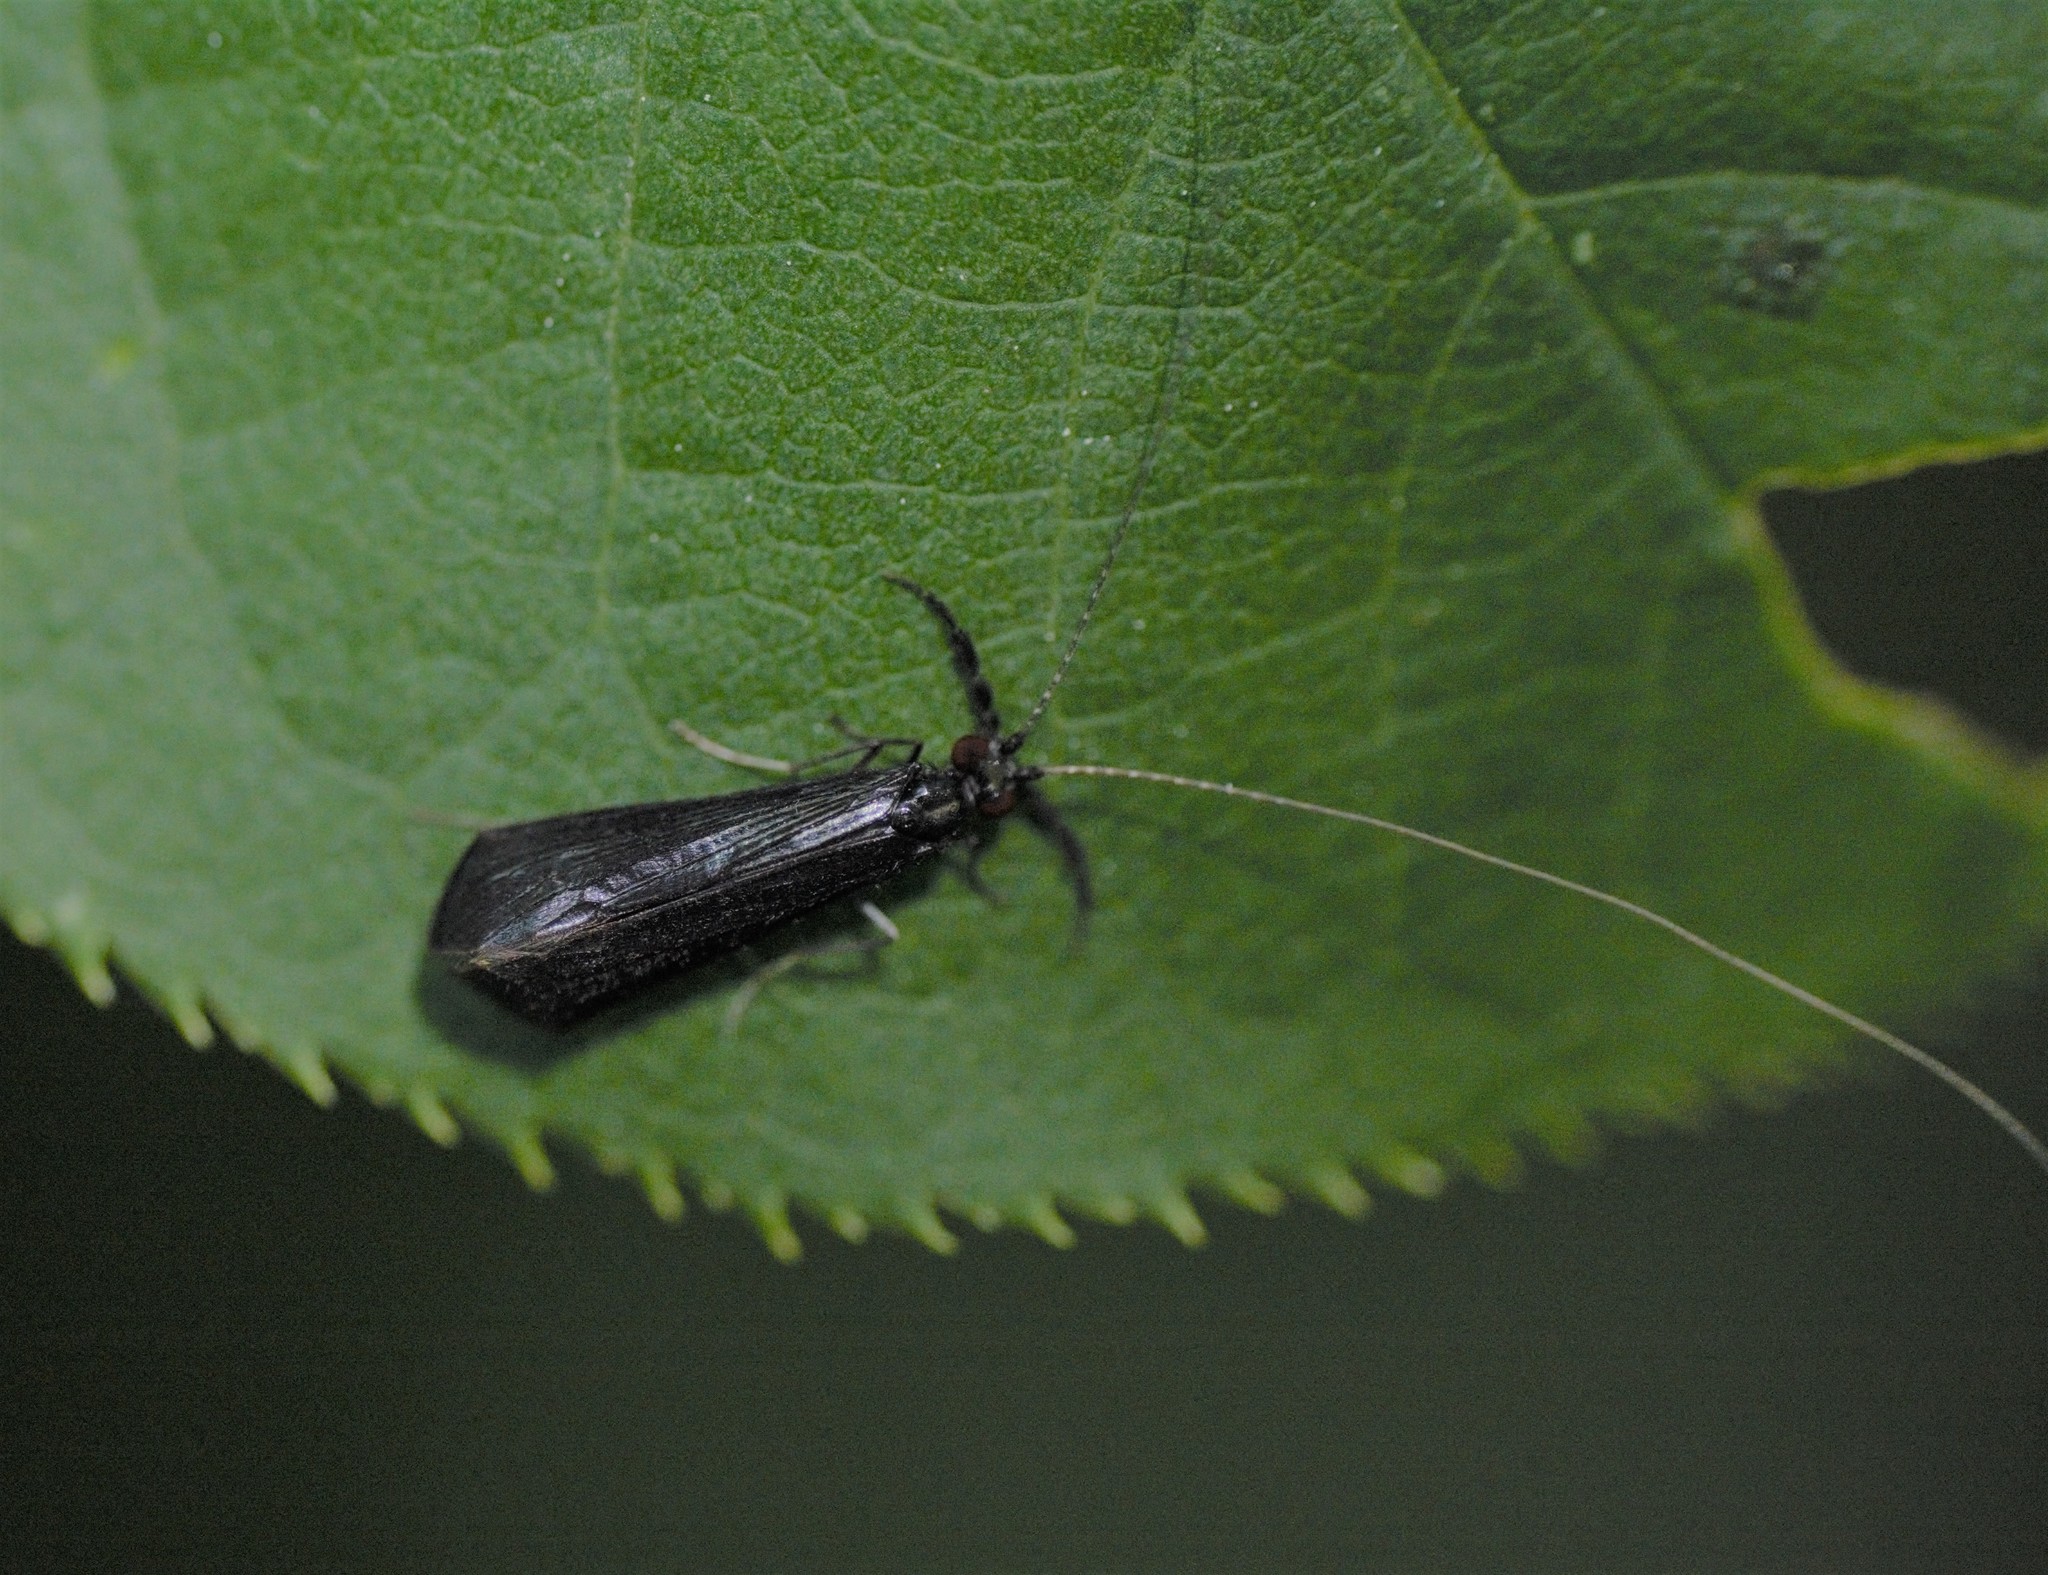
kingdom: Animalia
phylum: Arthropoda
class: Insecta
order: Trichoptera
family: Leptoceridae
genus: Mystacides
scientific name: Mystacides sepulchralis
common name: Black dancer caddisfly
